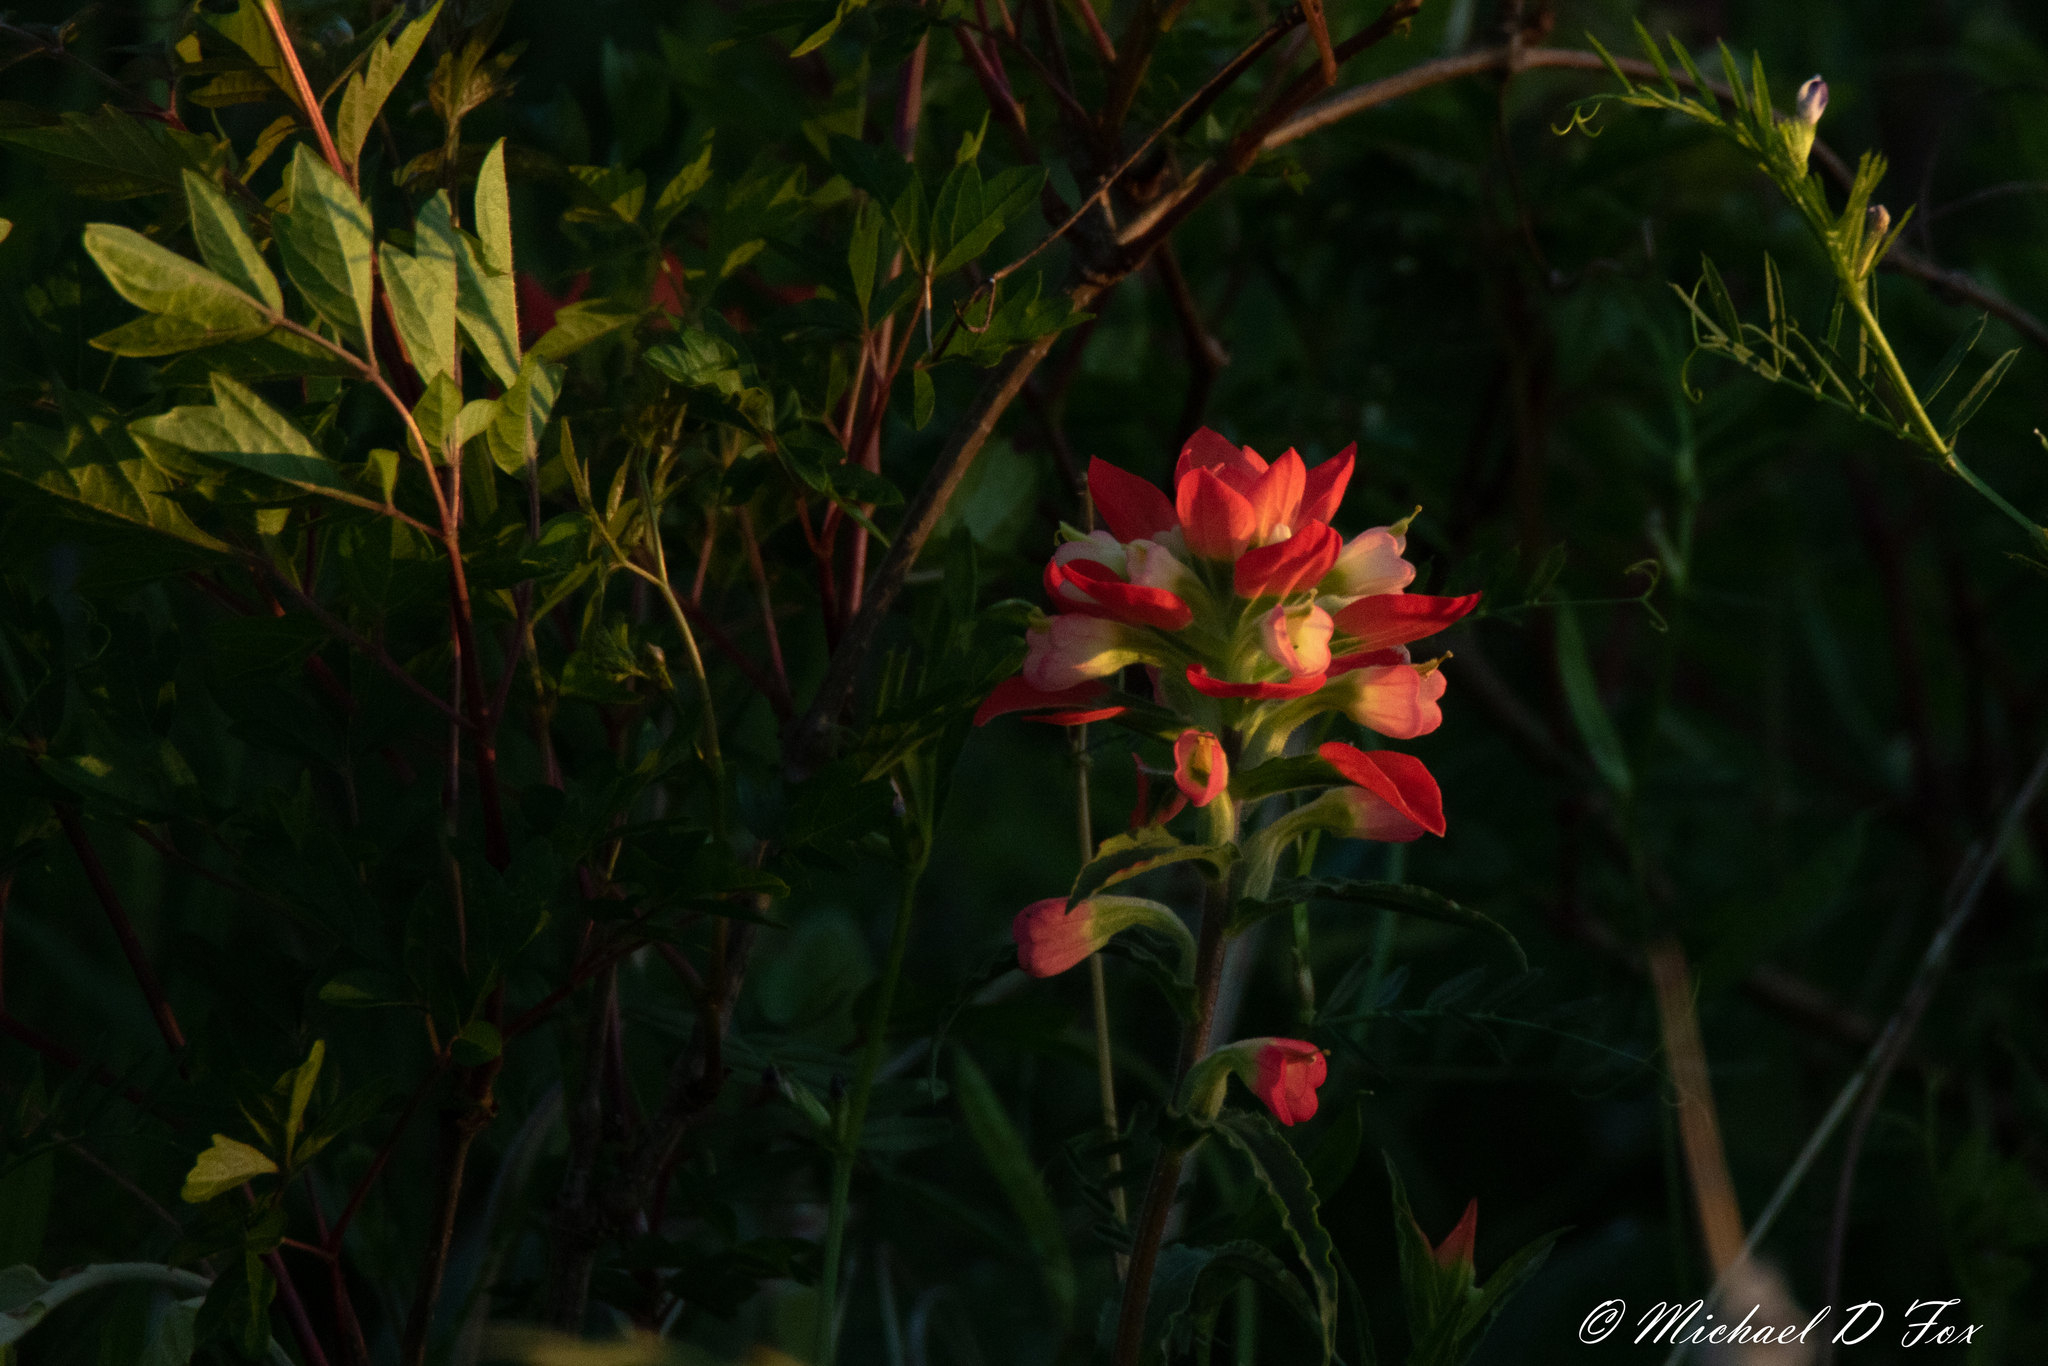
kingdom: Plantae
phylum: Tracheophyta
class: Magnoliopsida
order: Lamiales
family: Orobanchaceae
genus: Castilleja
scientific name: Castilleja indivisa
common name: Texas paintbrush
